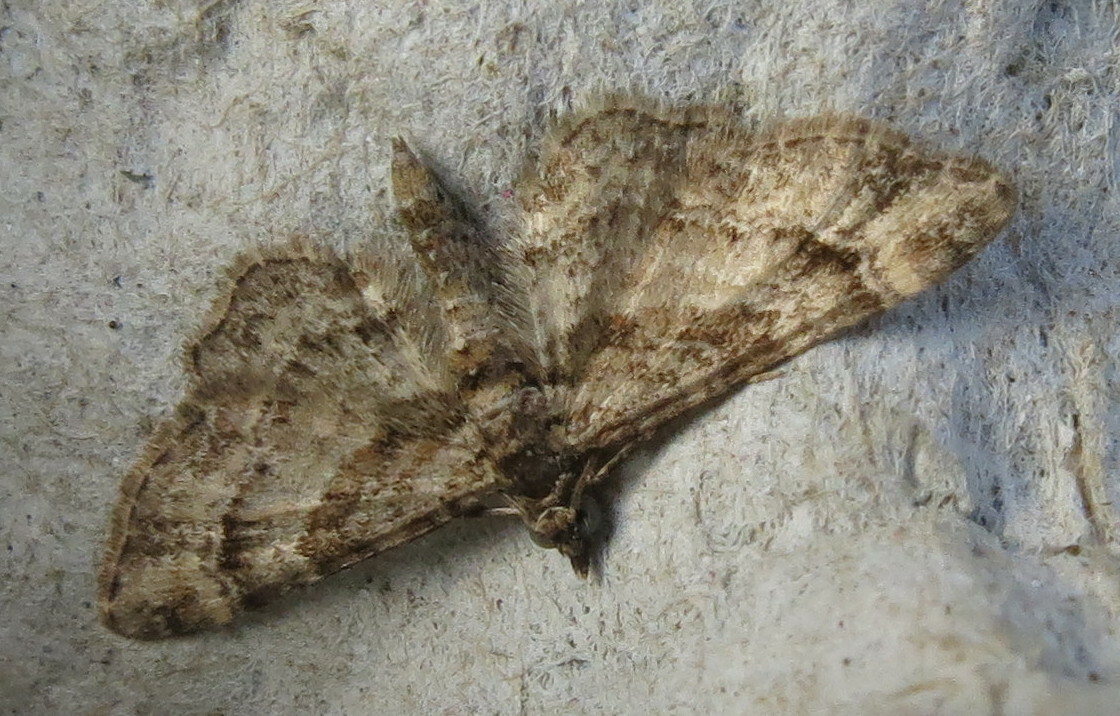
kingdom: Animalia
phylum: Arthropoda
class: Insecta
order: Lepidoptera
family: Geometridae
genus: Gymnoscelis
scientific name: Gymnoscelis rufifasciata
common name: Double-striped pug
